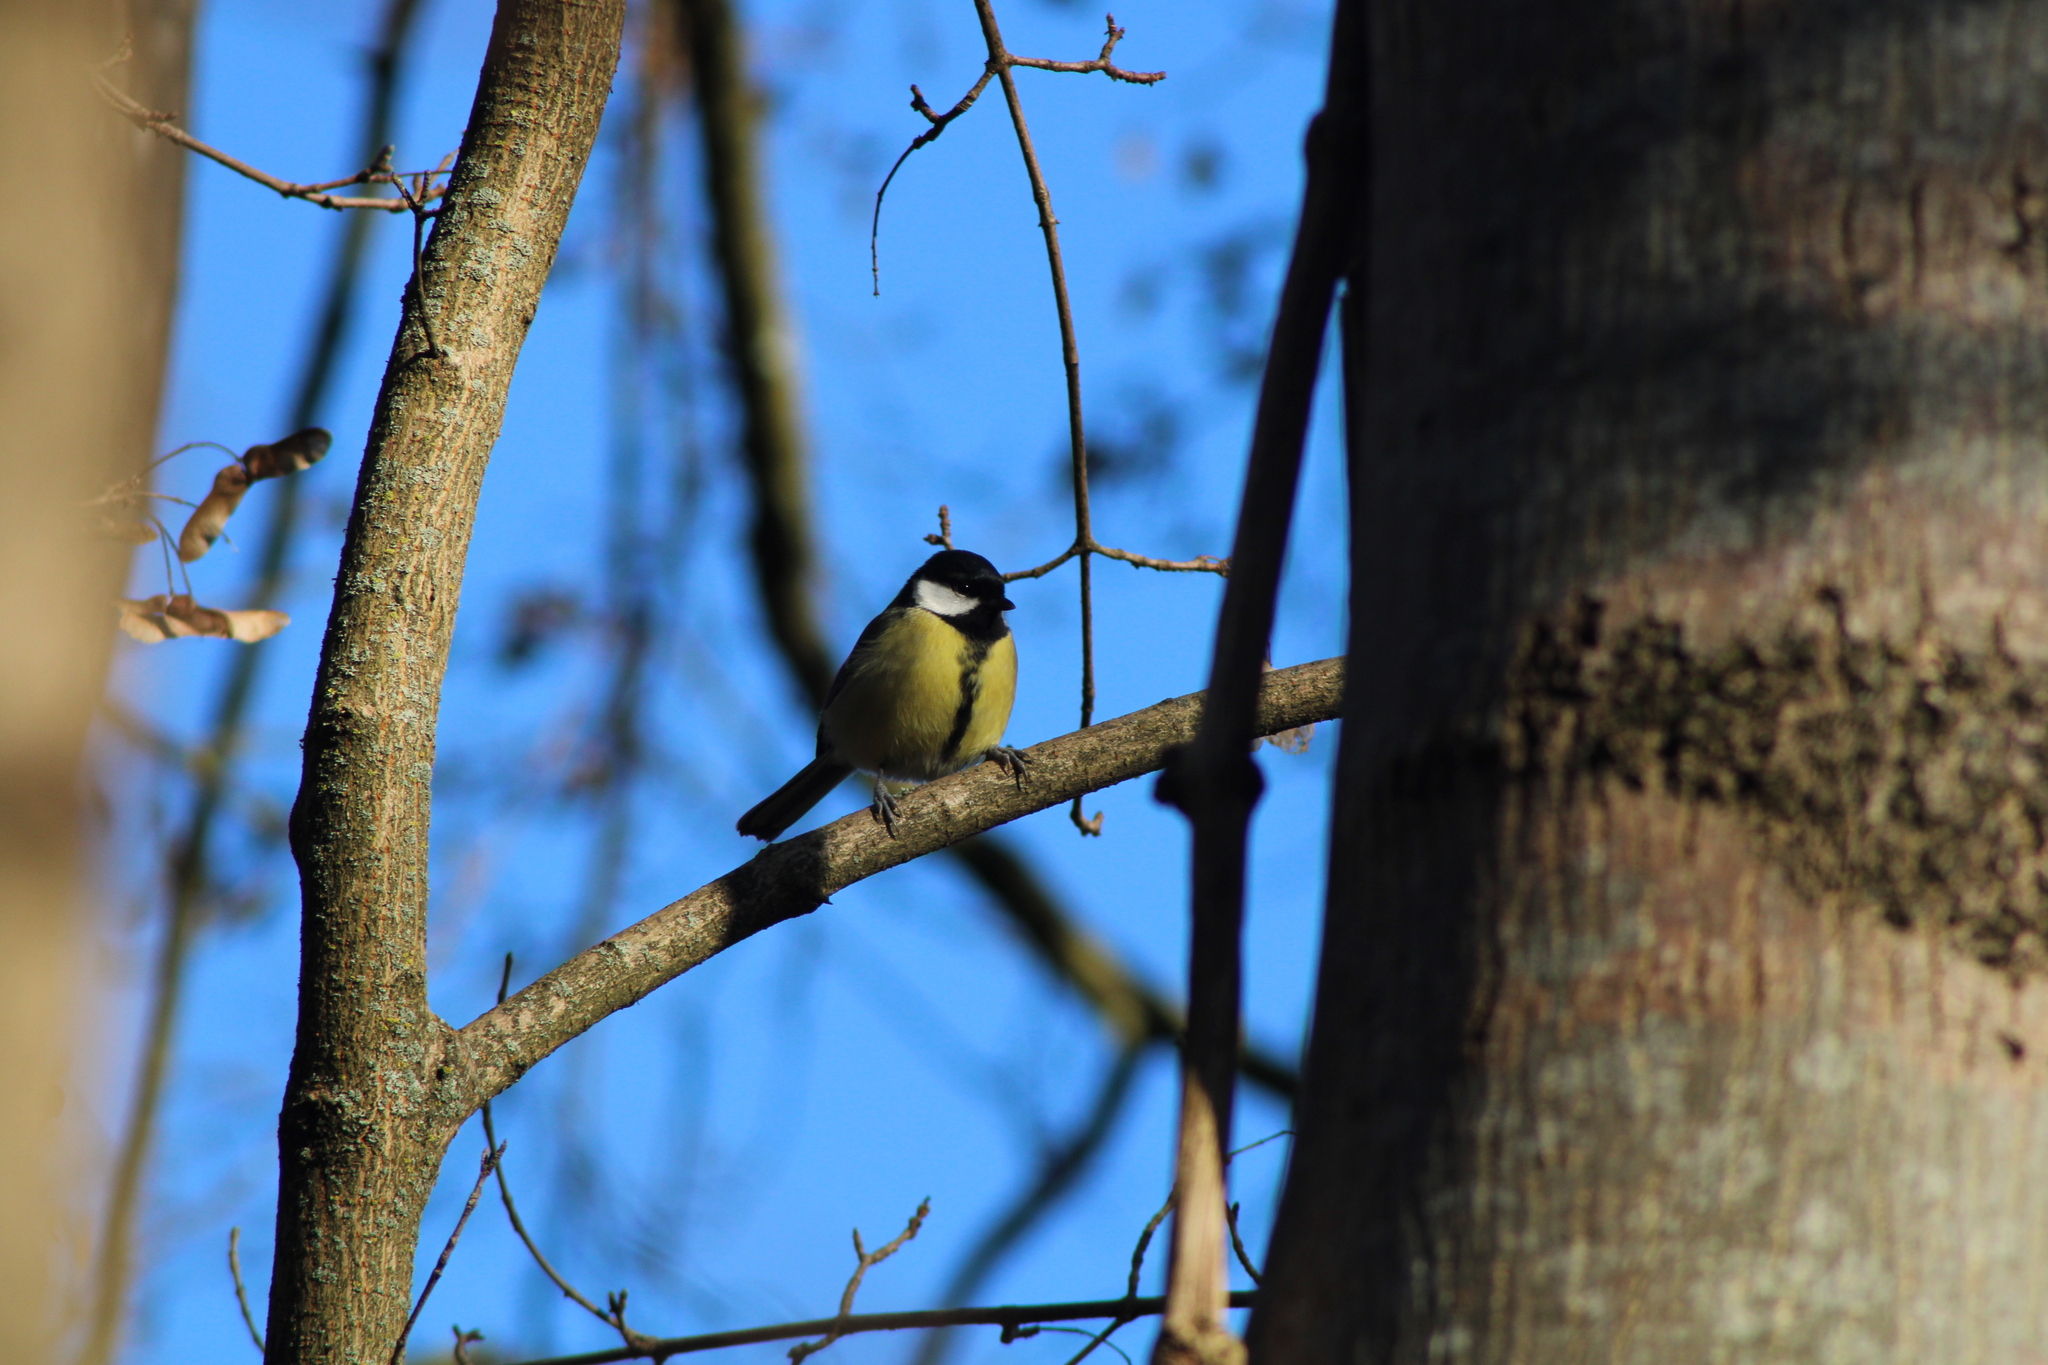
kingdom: Animalia
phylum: Chordata
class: Aves
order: Passeriformes
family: Paridae
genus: Parus
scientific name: Parus major
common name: Great tit
